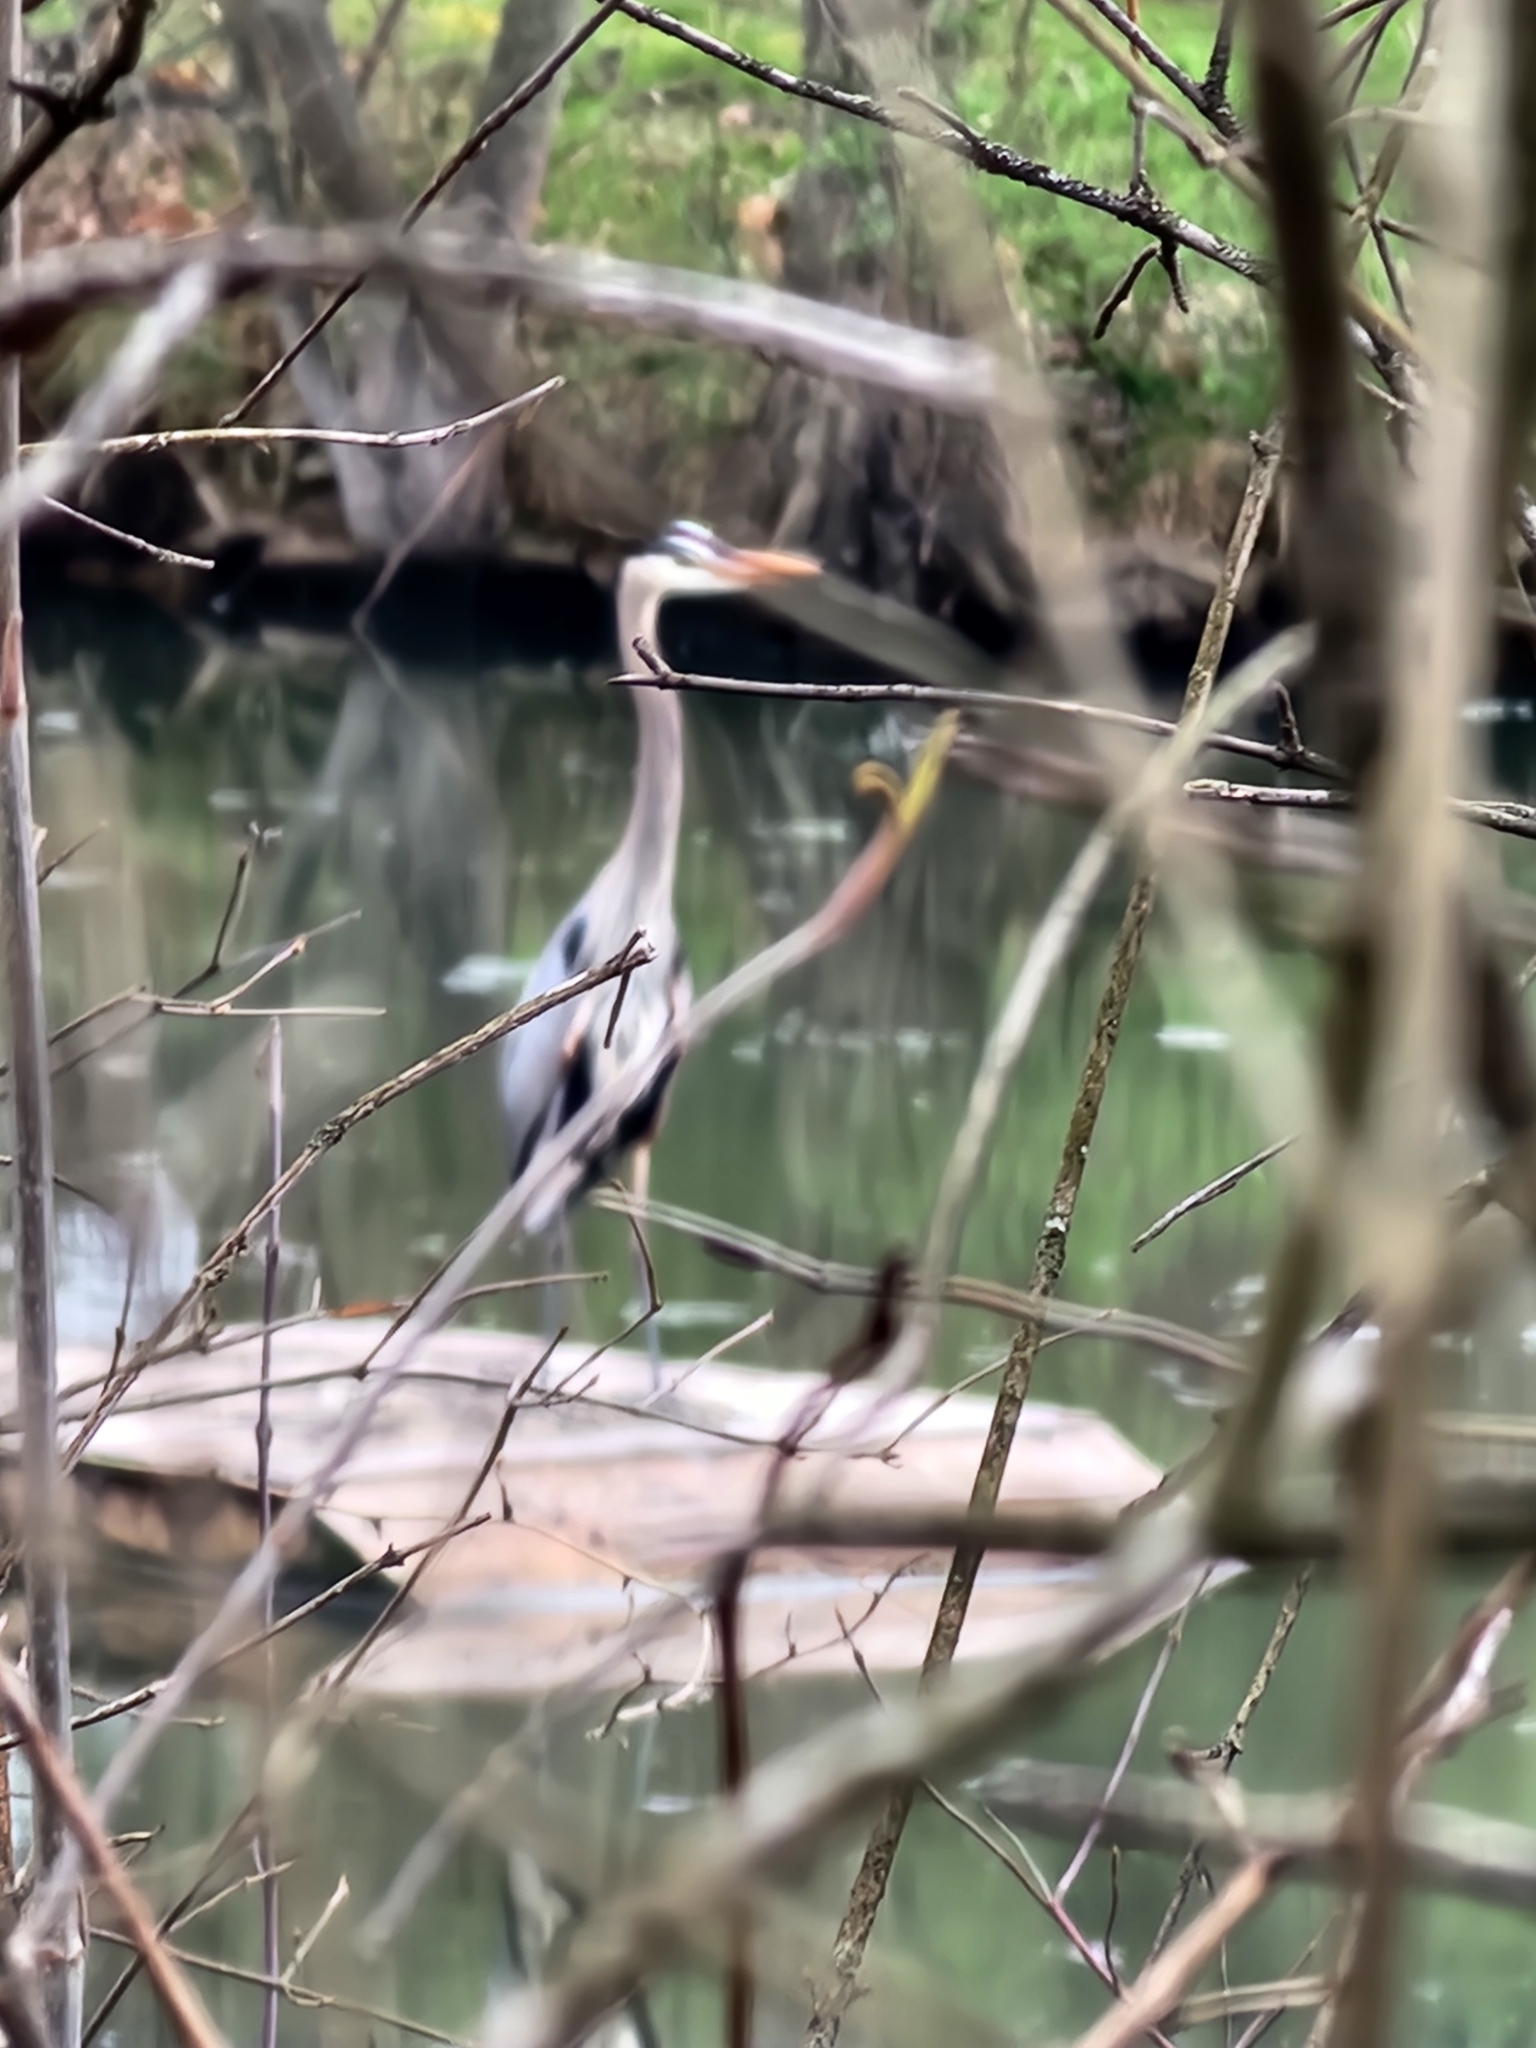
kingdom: Animalia
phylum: Chordata
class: Aves
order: Pelecaniformes
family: Ardeidae
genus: Ardea
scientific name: Ardea herodias
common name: Great blue heron
